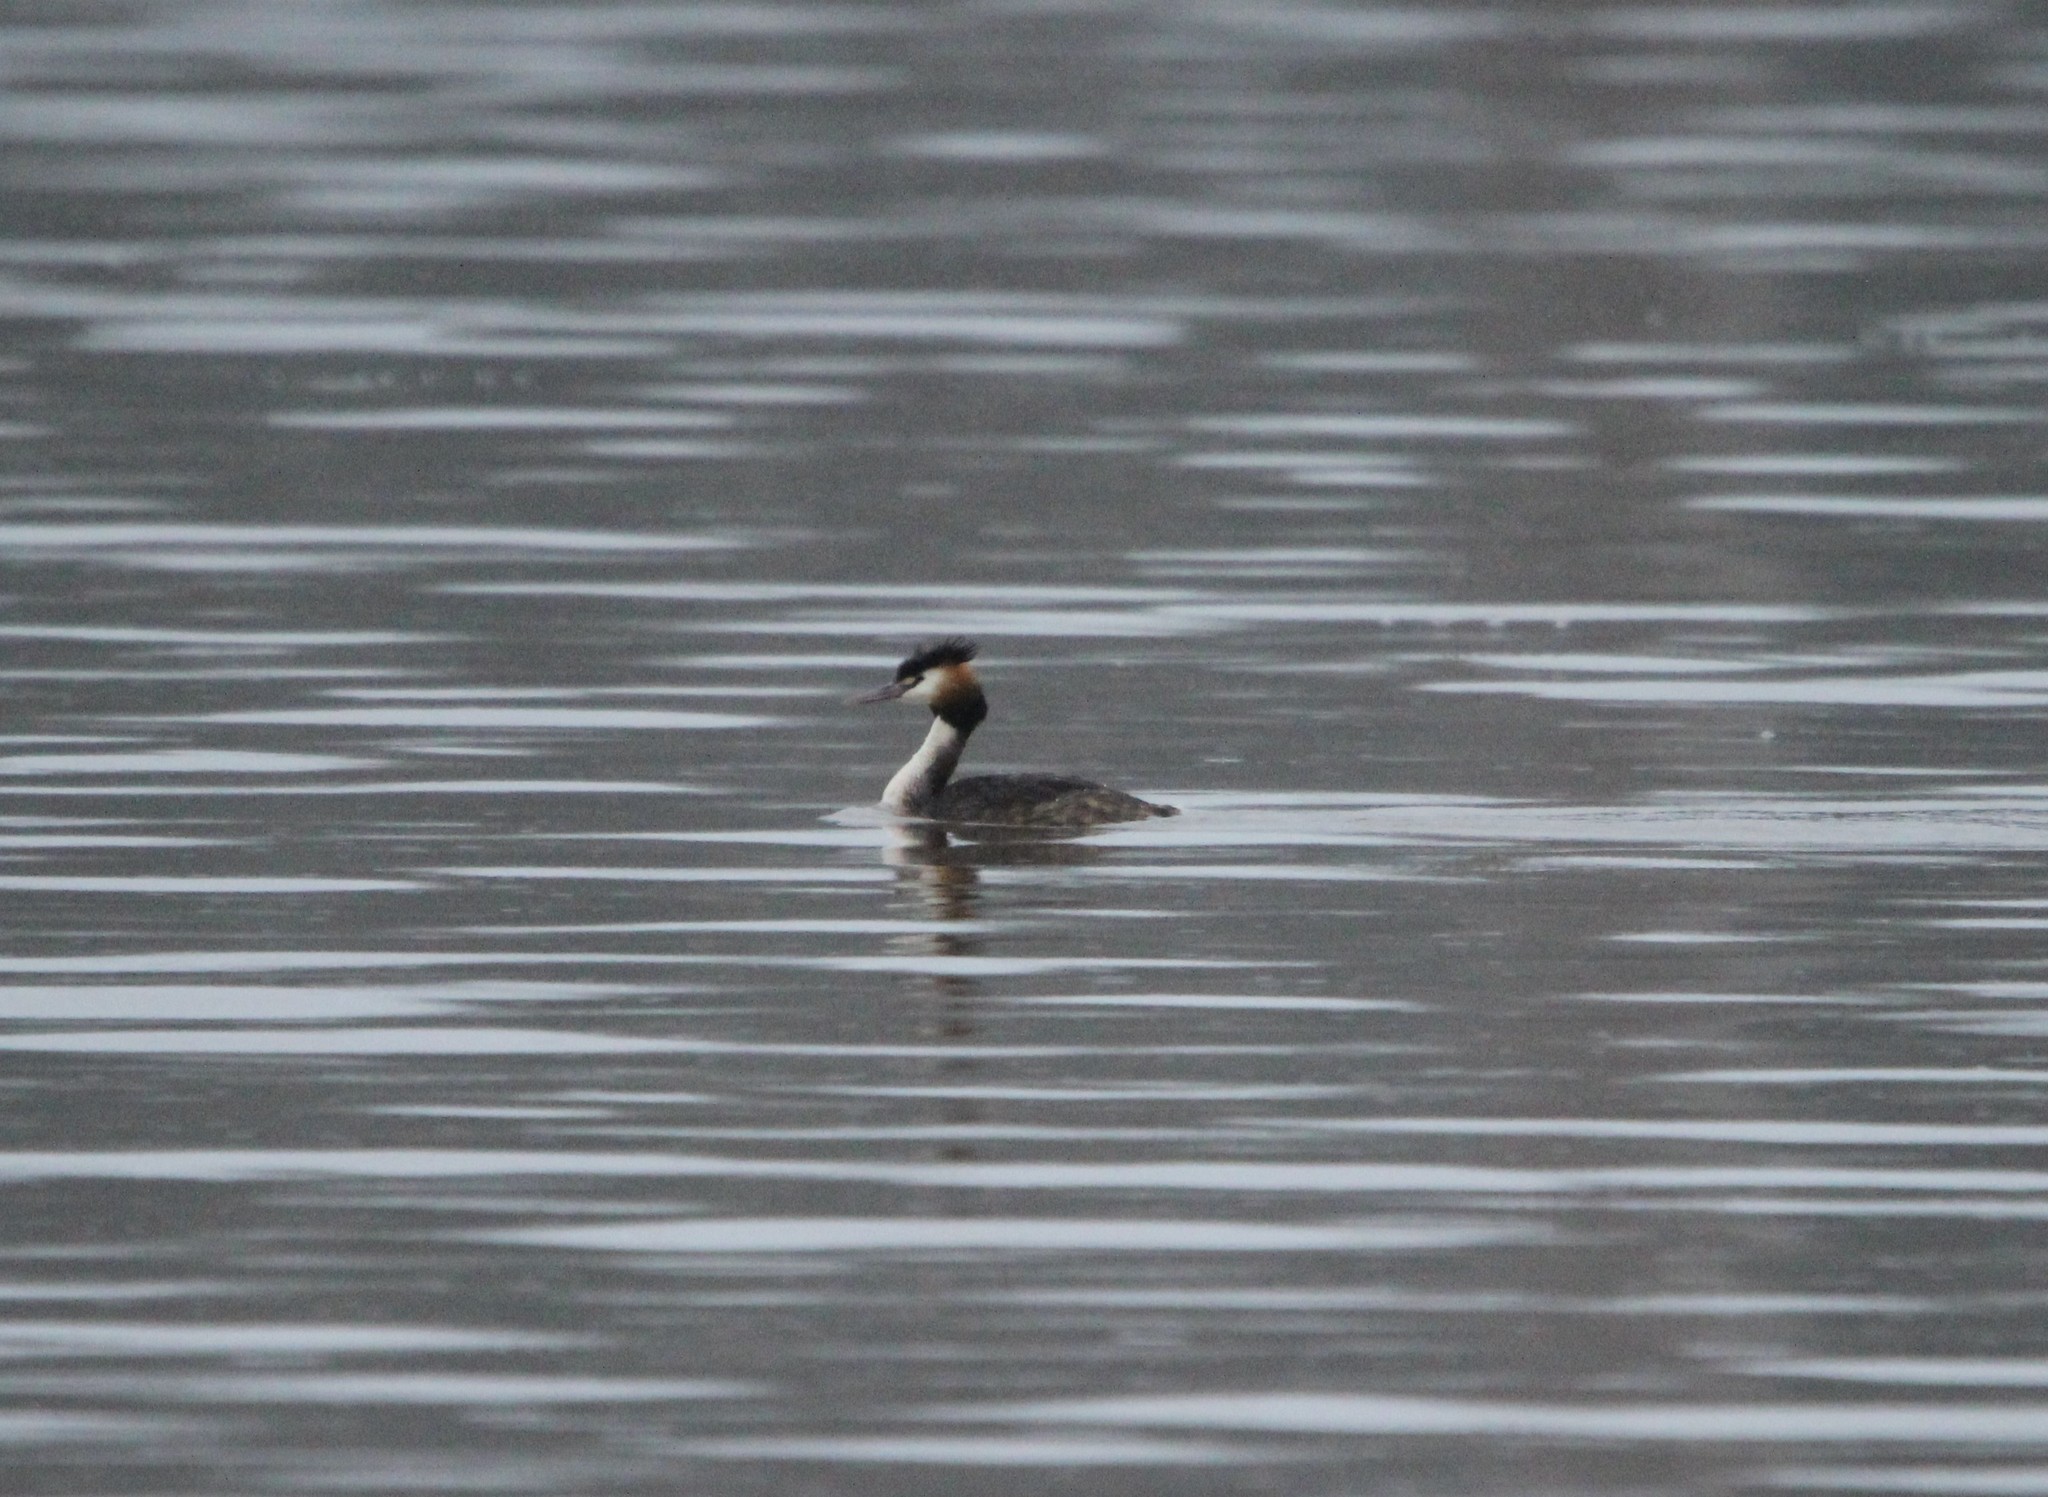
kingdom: Animalia
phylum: Chordata
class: Aves
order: Podicipediformes
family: Podicipedidae
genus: Podiceps
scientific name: Podiceps cristatus
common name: Great crested grebe
